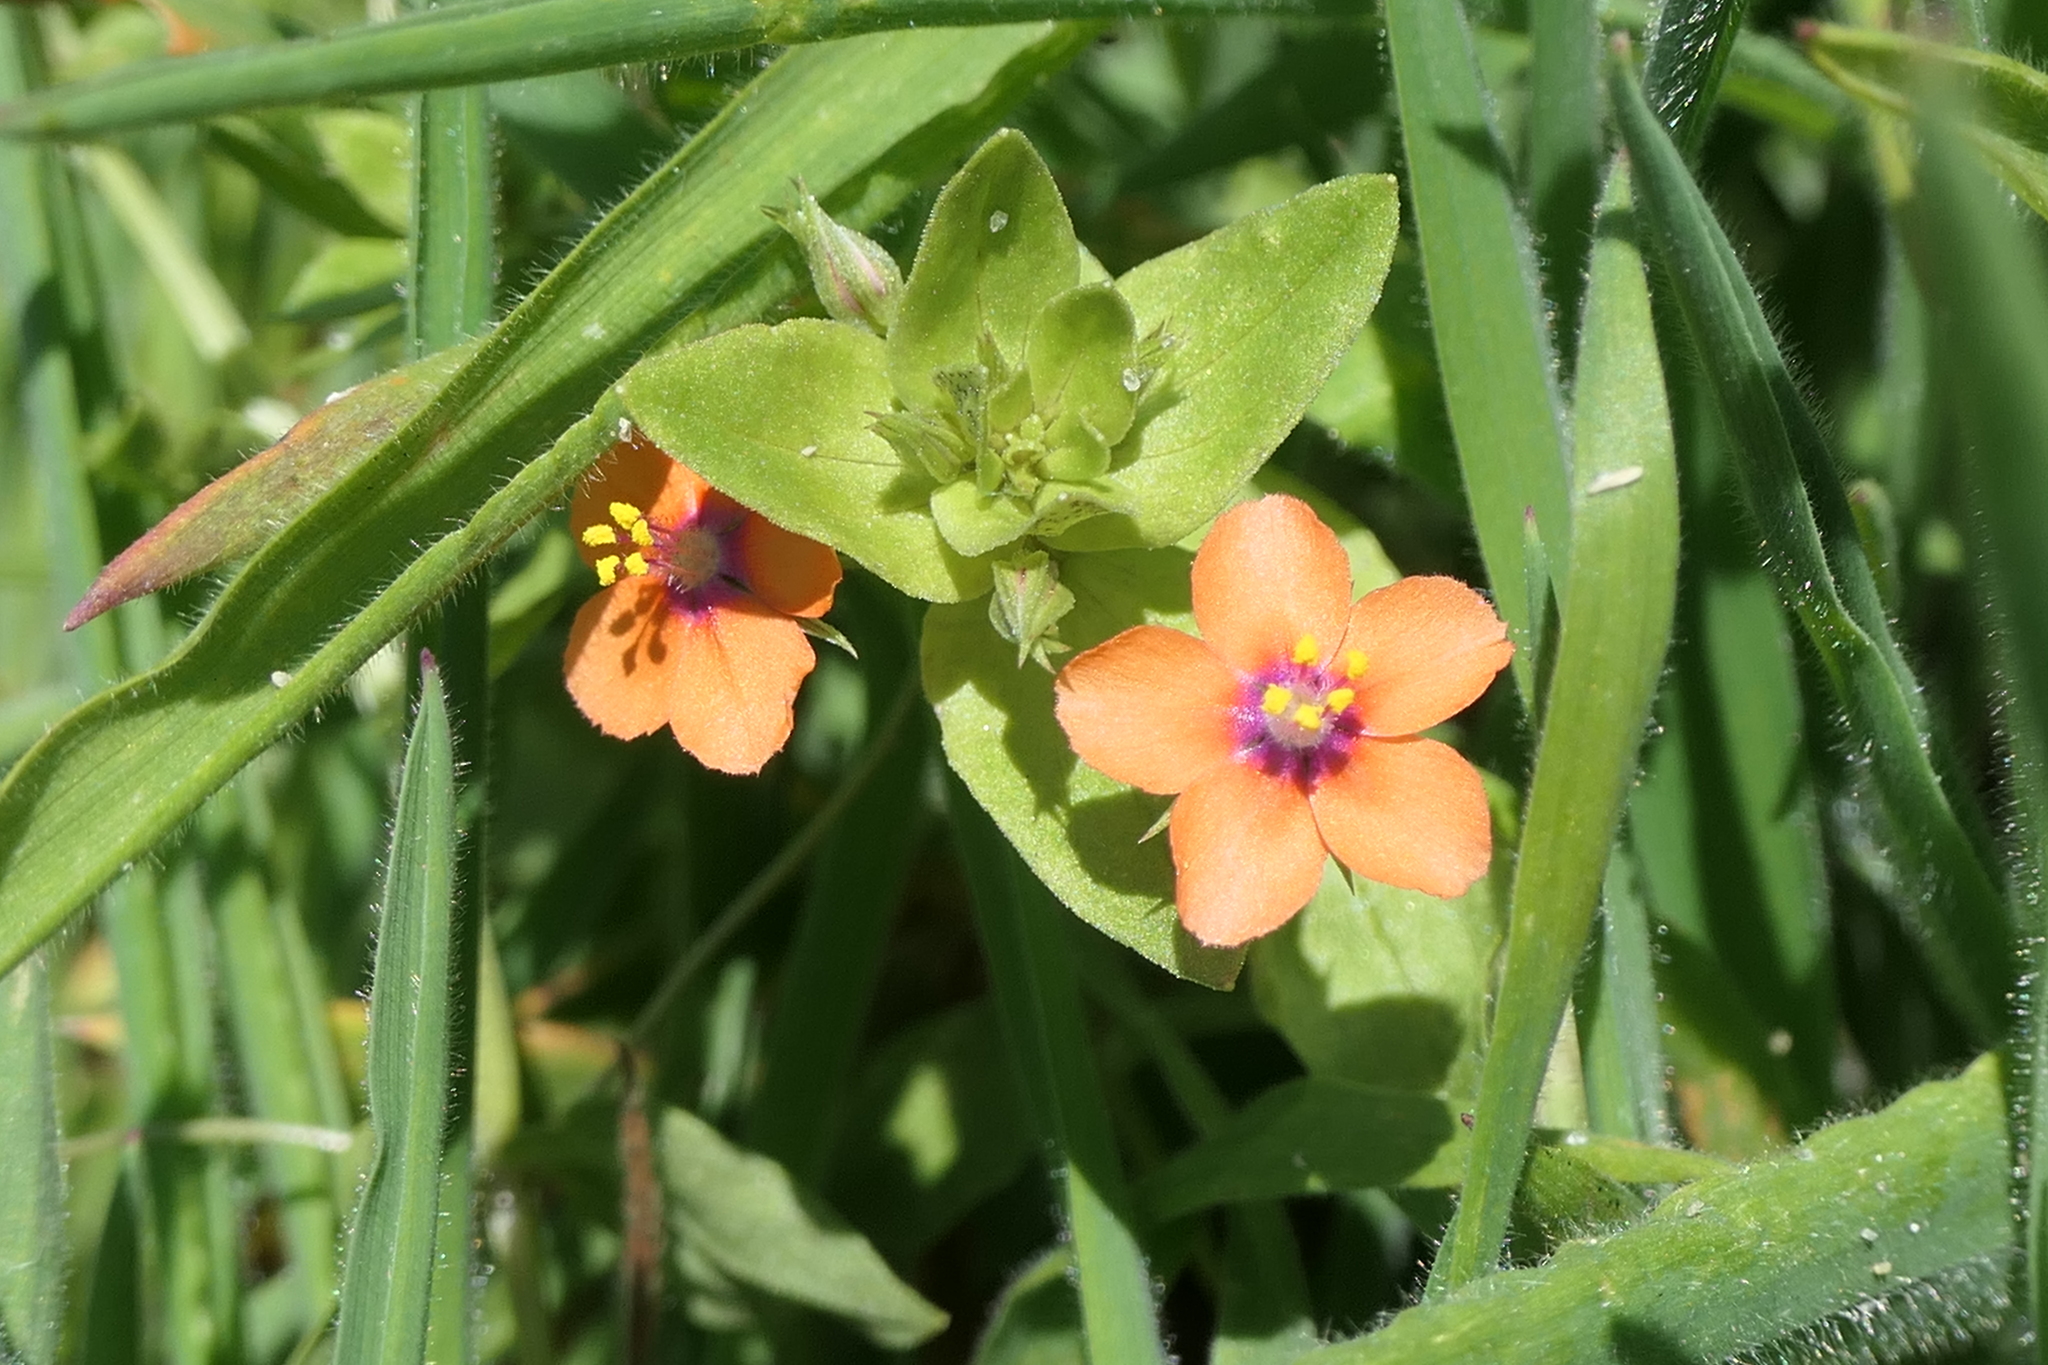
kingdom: Plantae
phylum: Tracheophyta
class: Magnoliopsida
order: Ericales
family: Primulaceae
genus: Lysimachia
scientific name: Lysimachia arvensis
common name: Scarlet pimpernel
